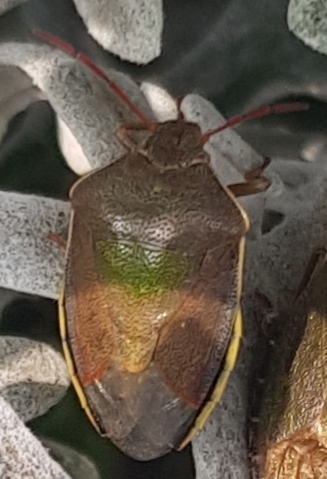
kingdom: Animalia
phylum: Arthropoda
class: Insecta
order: Hemiptera
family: Pentatomidae
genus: Piezodorus
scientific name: Piezodorus lituratus
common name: Stink bug
